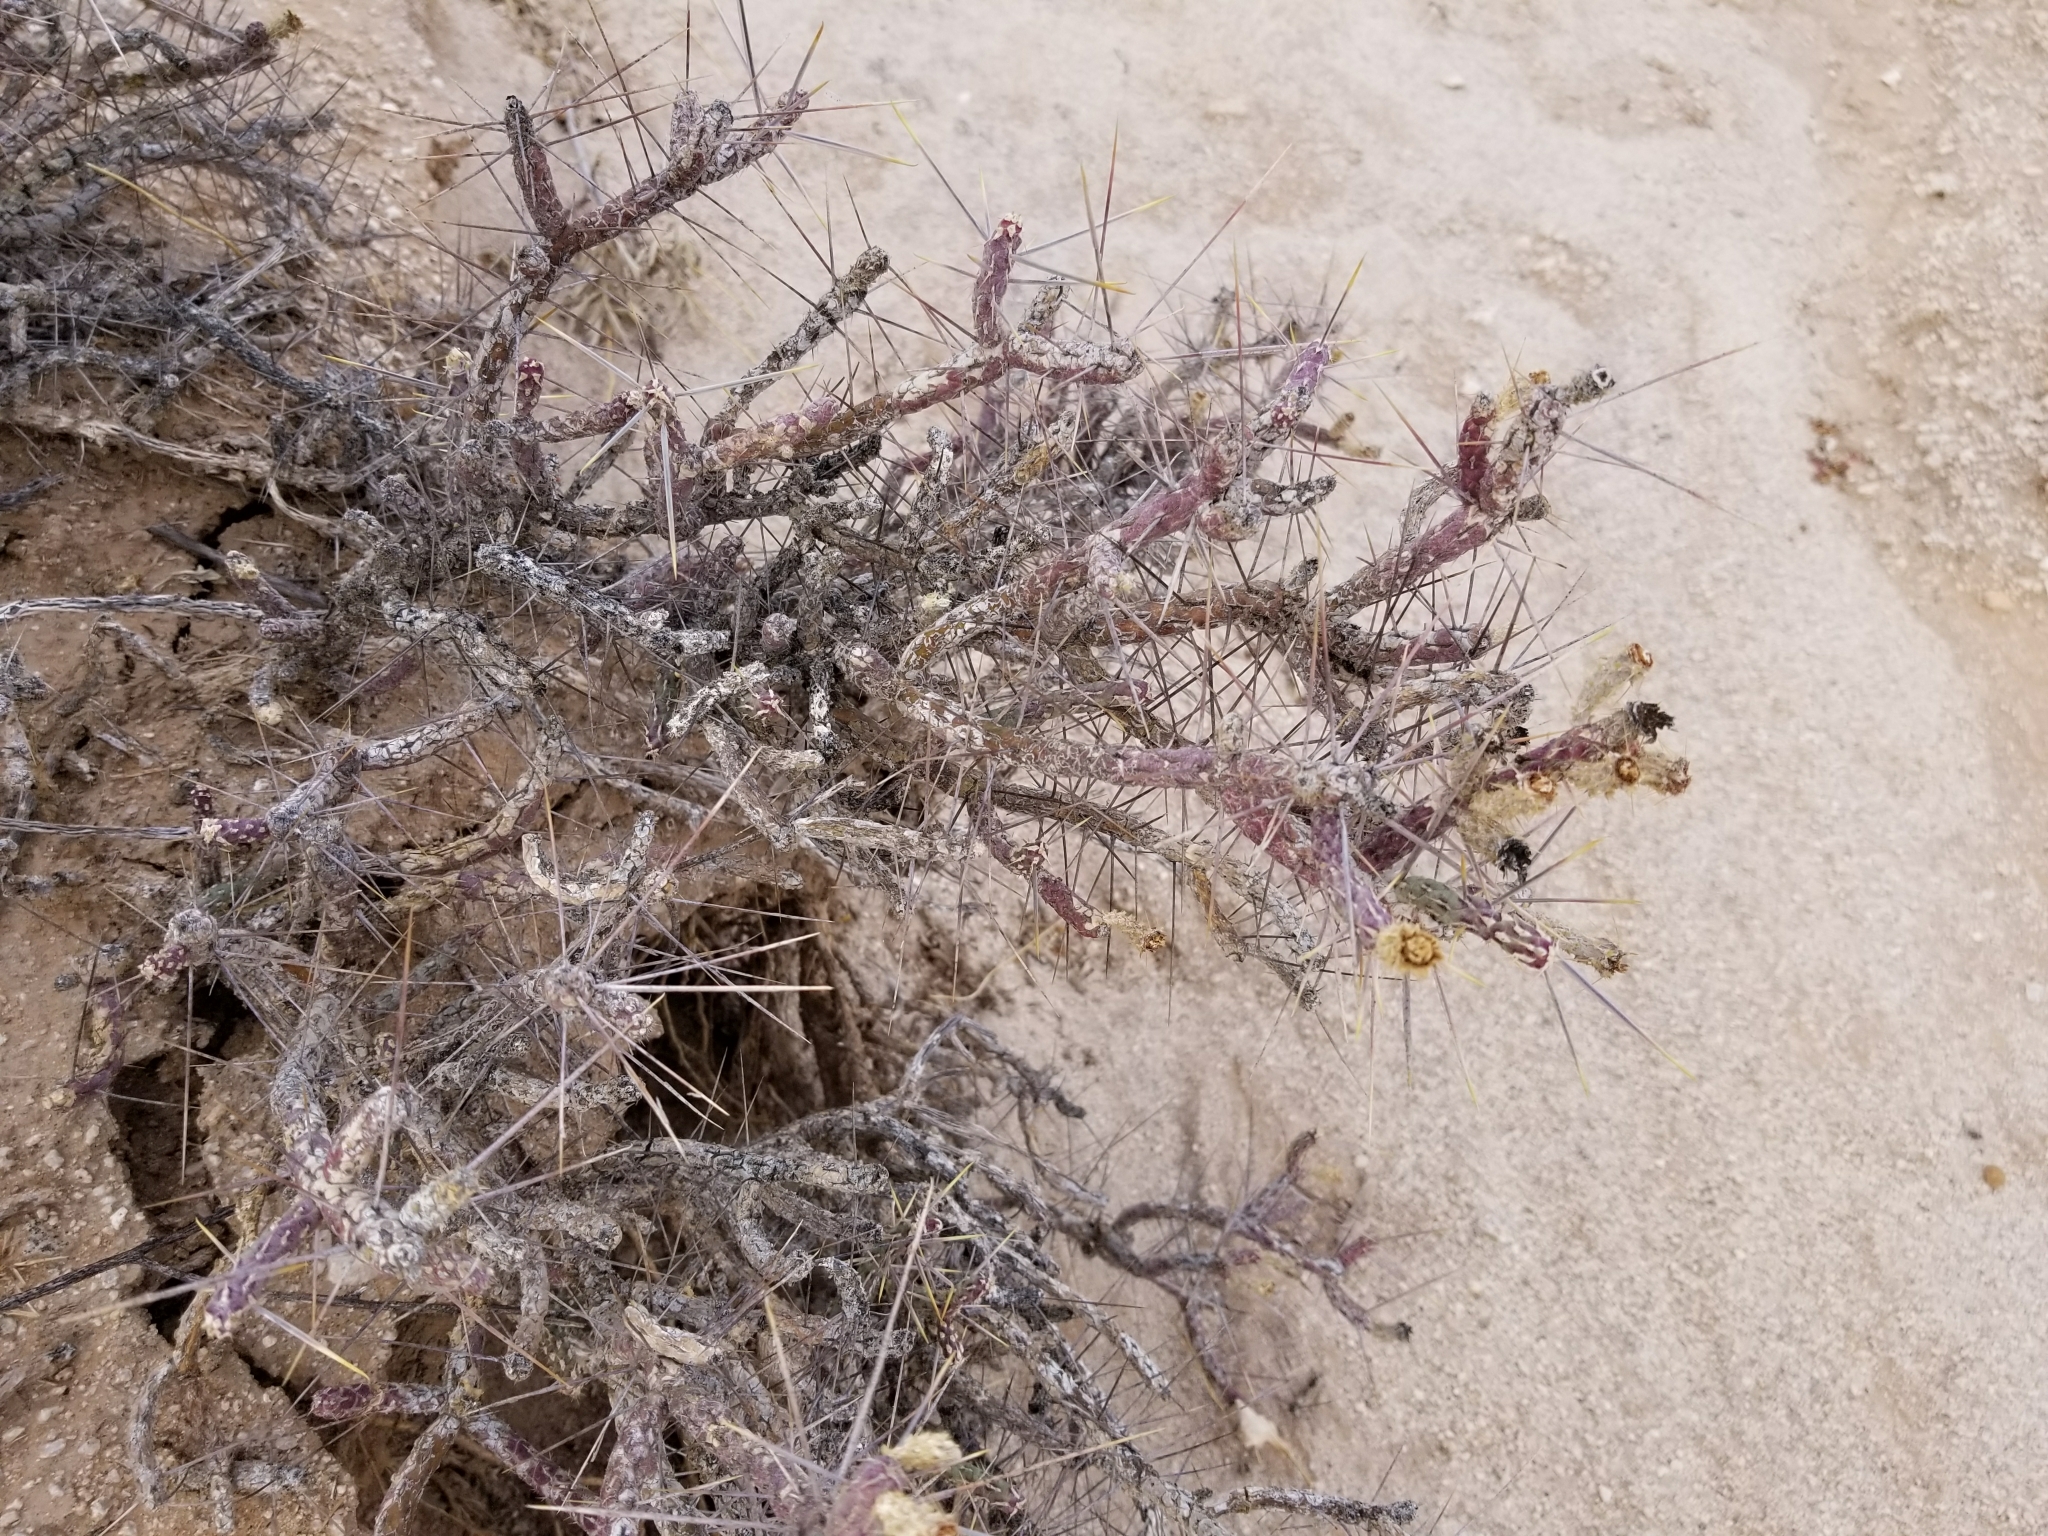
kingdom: Plantae
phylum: Tracheophyta
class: Magnoliopsida
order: Caryophyllales
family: Cactaceae
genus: Cylindropuntia
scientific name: Cylindropuntia ramosissima
